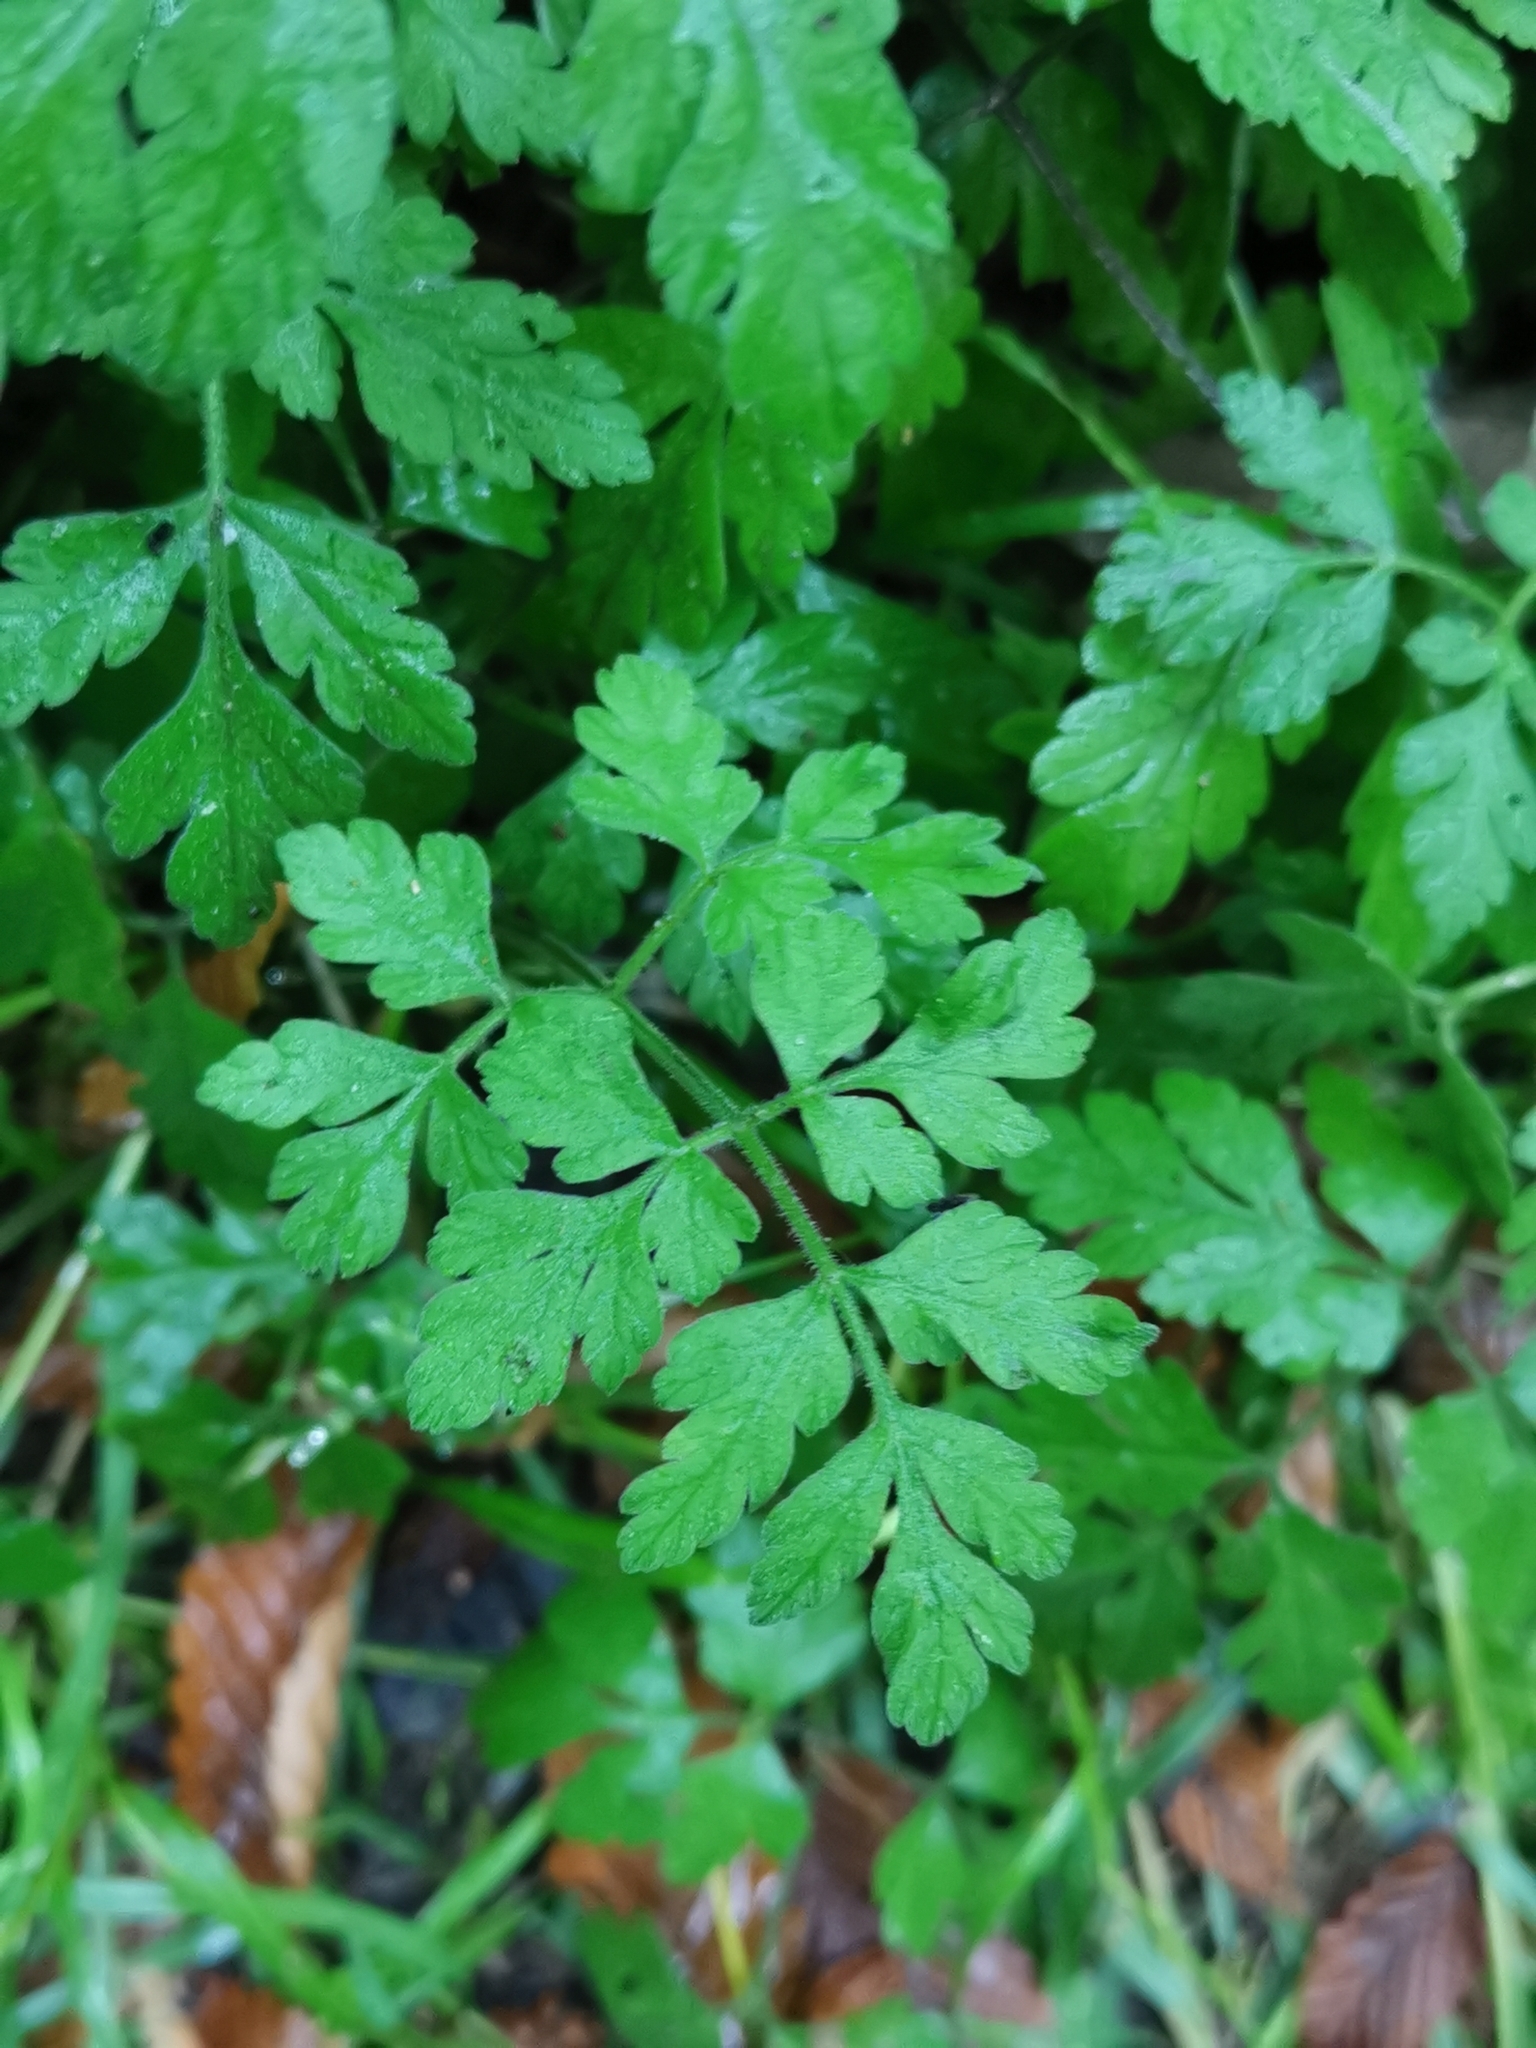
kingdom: Plantae
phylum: Tracheophyta
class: Magnoliopsida
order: Apiales
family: Apiaceae
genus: Chaerophyllum
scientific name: Chaerophyllum temulum
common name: Rough chervil
